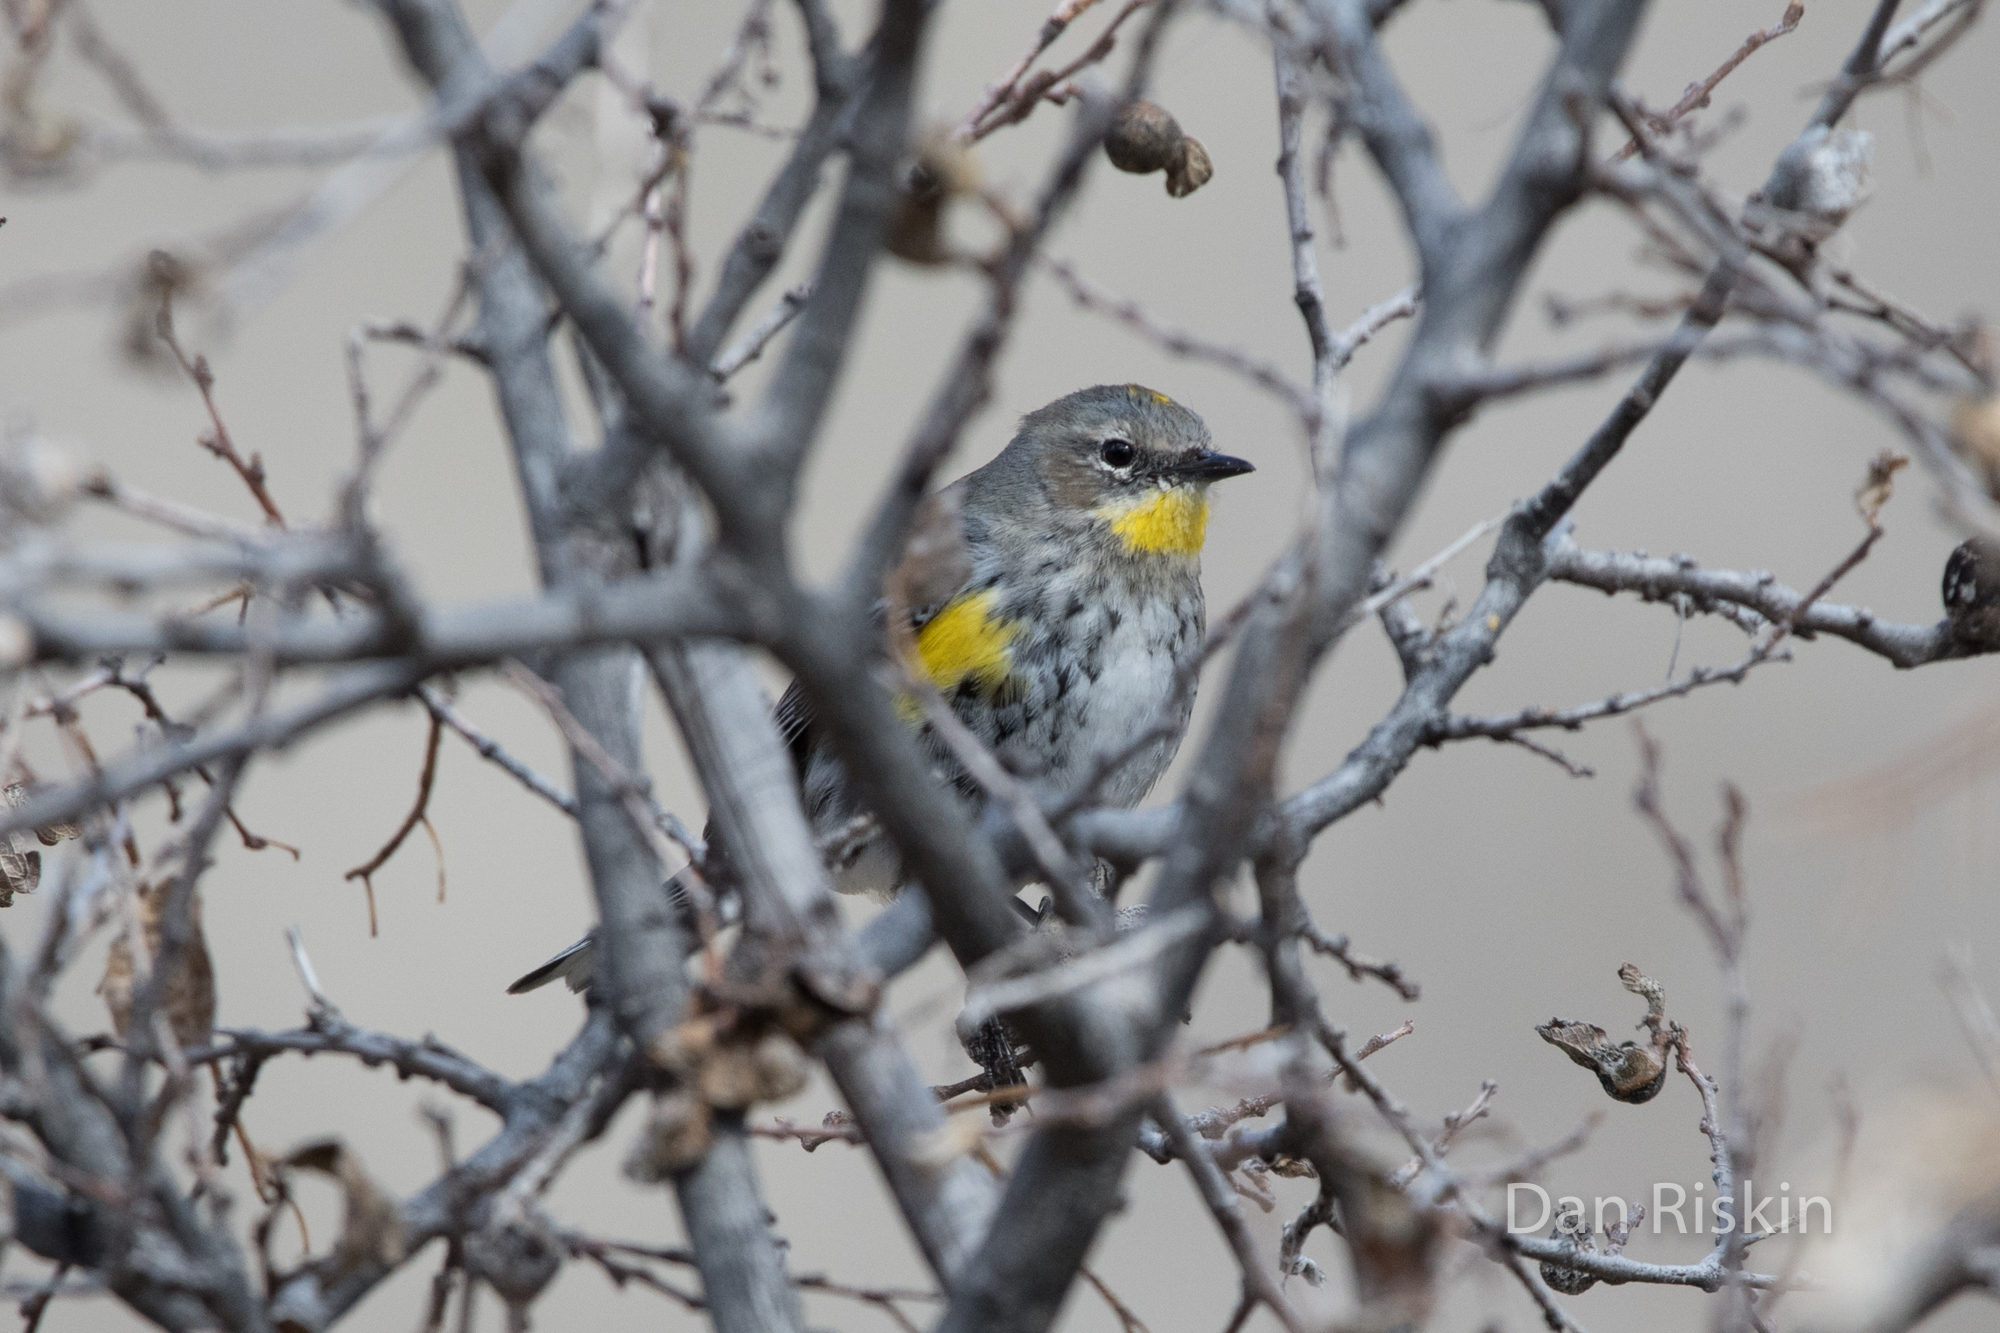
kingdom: Animalia
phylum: Chordata
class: Aves
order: Passeriformes
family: Parulidae
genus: Setophaga
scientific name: Setophaga coronata
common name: Myrtle warbler
